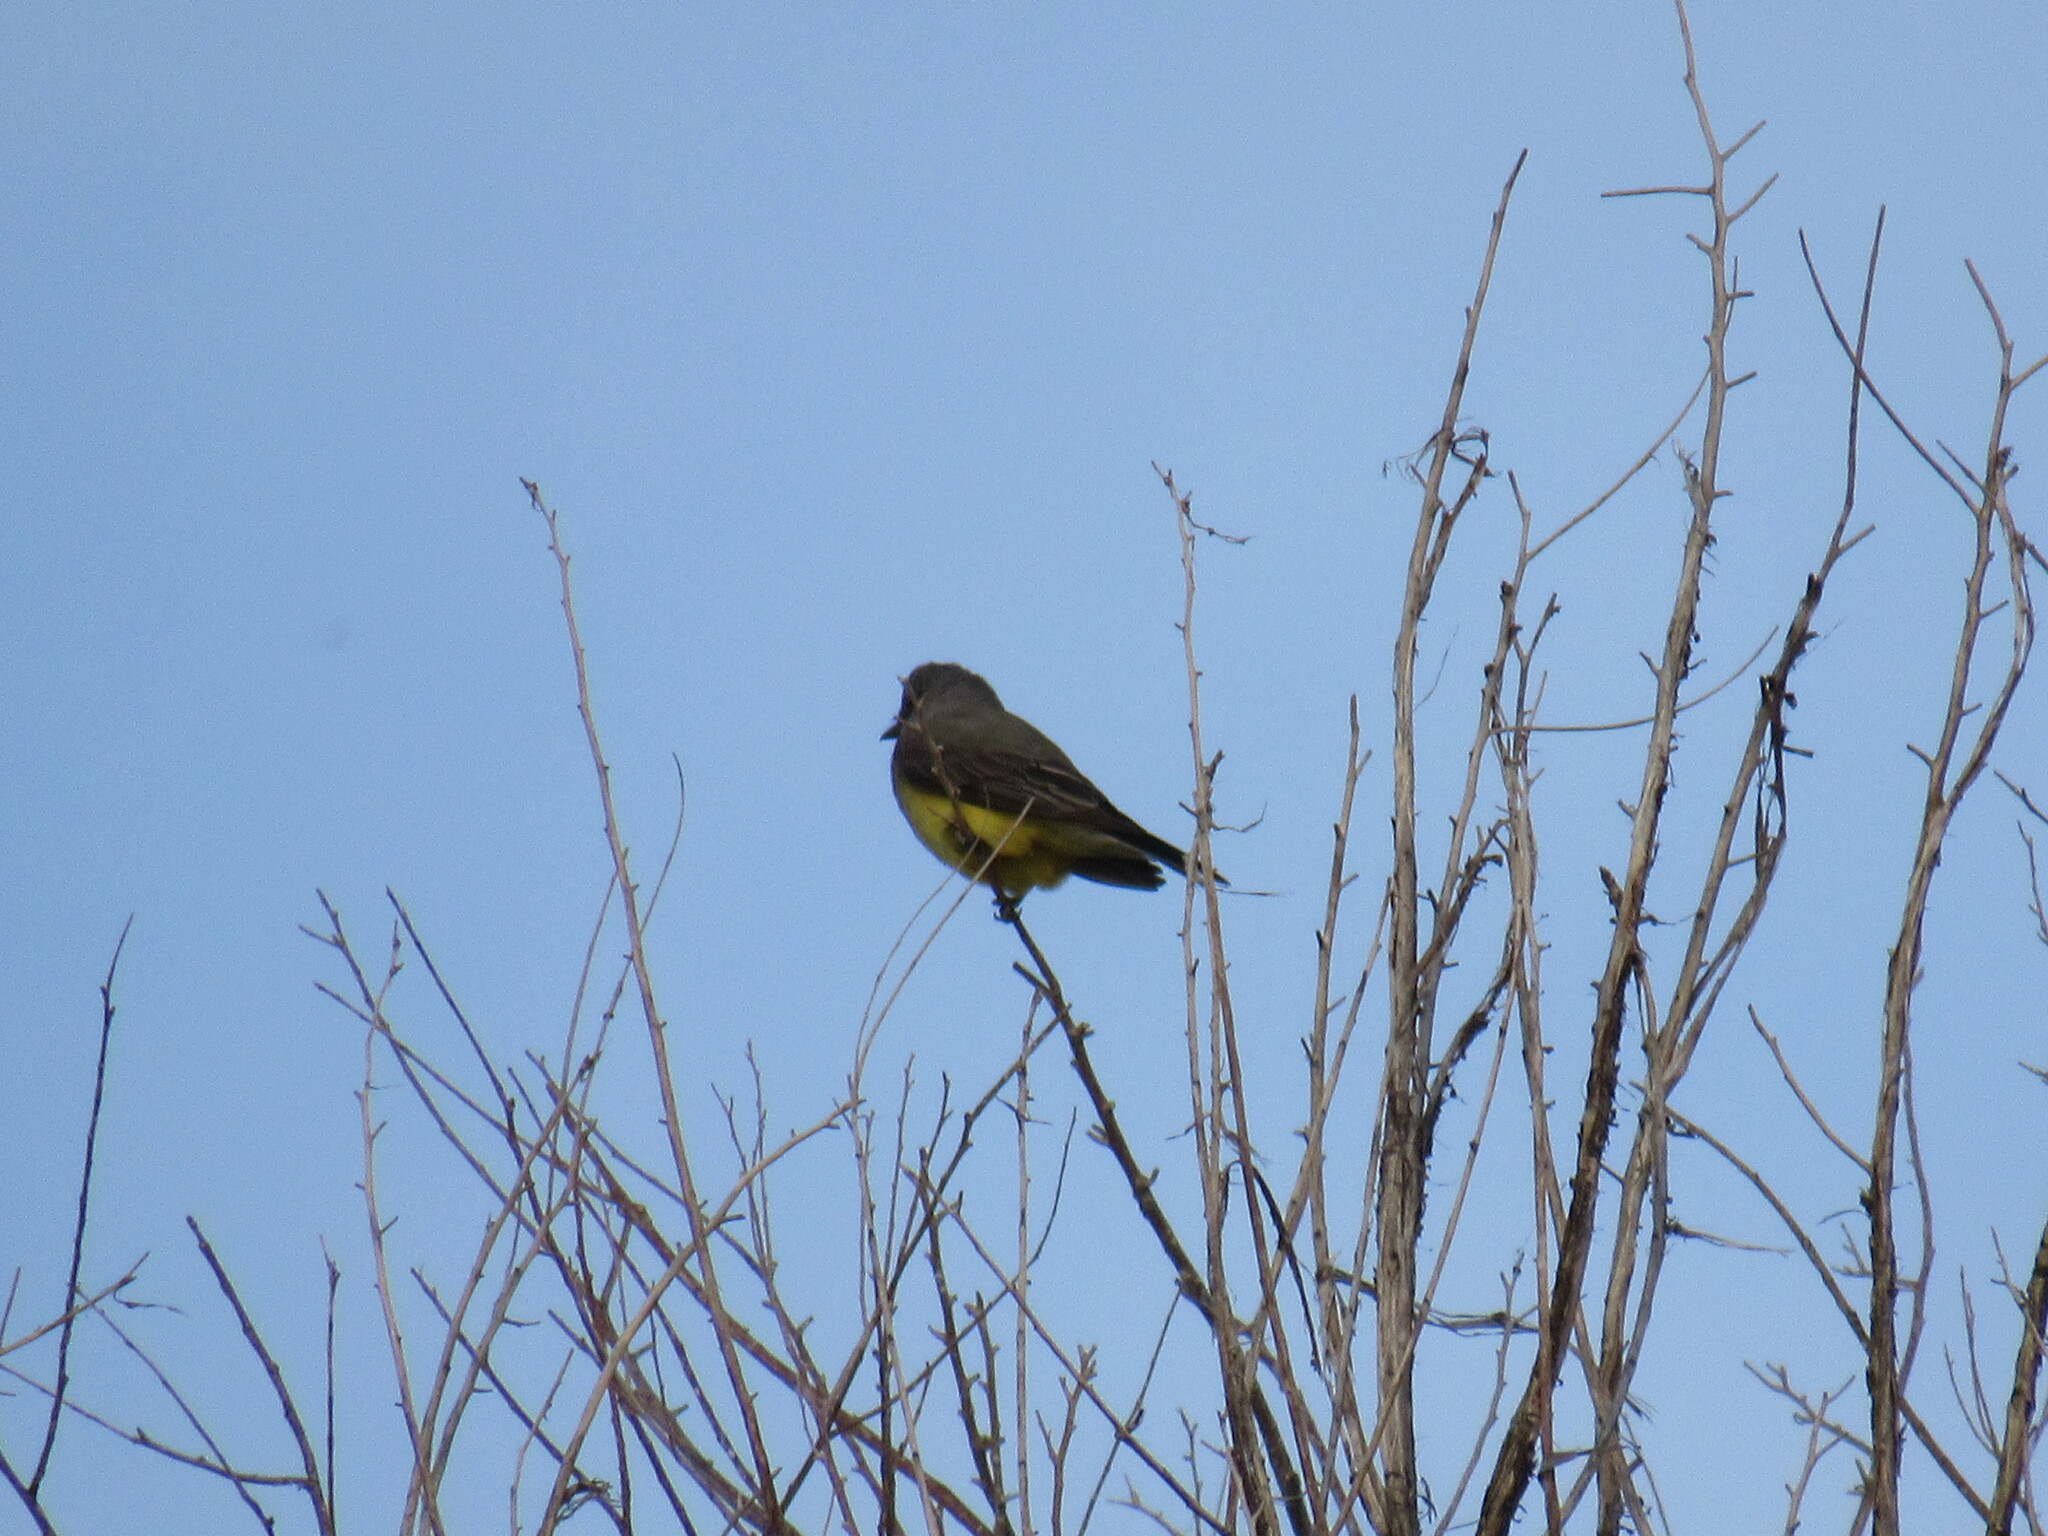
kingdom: Animalia
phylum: Chordata
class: Aves
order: Passeriformes
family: Tyrannidae
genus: Tyrannus
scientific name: Tyrannus verticalis
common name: Western kingbird
